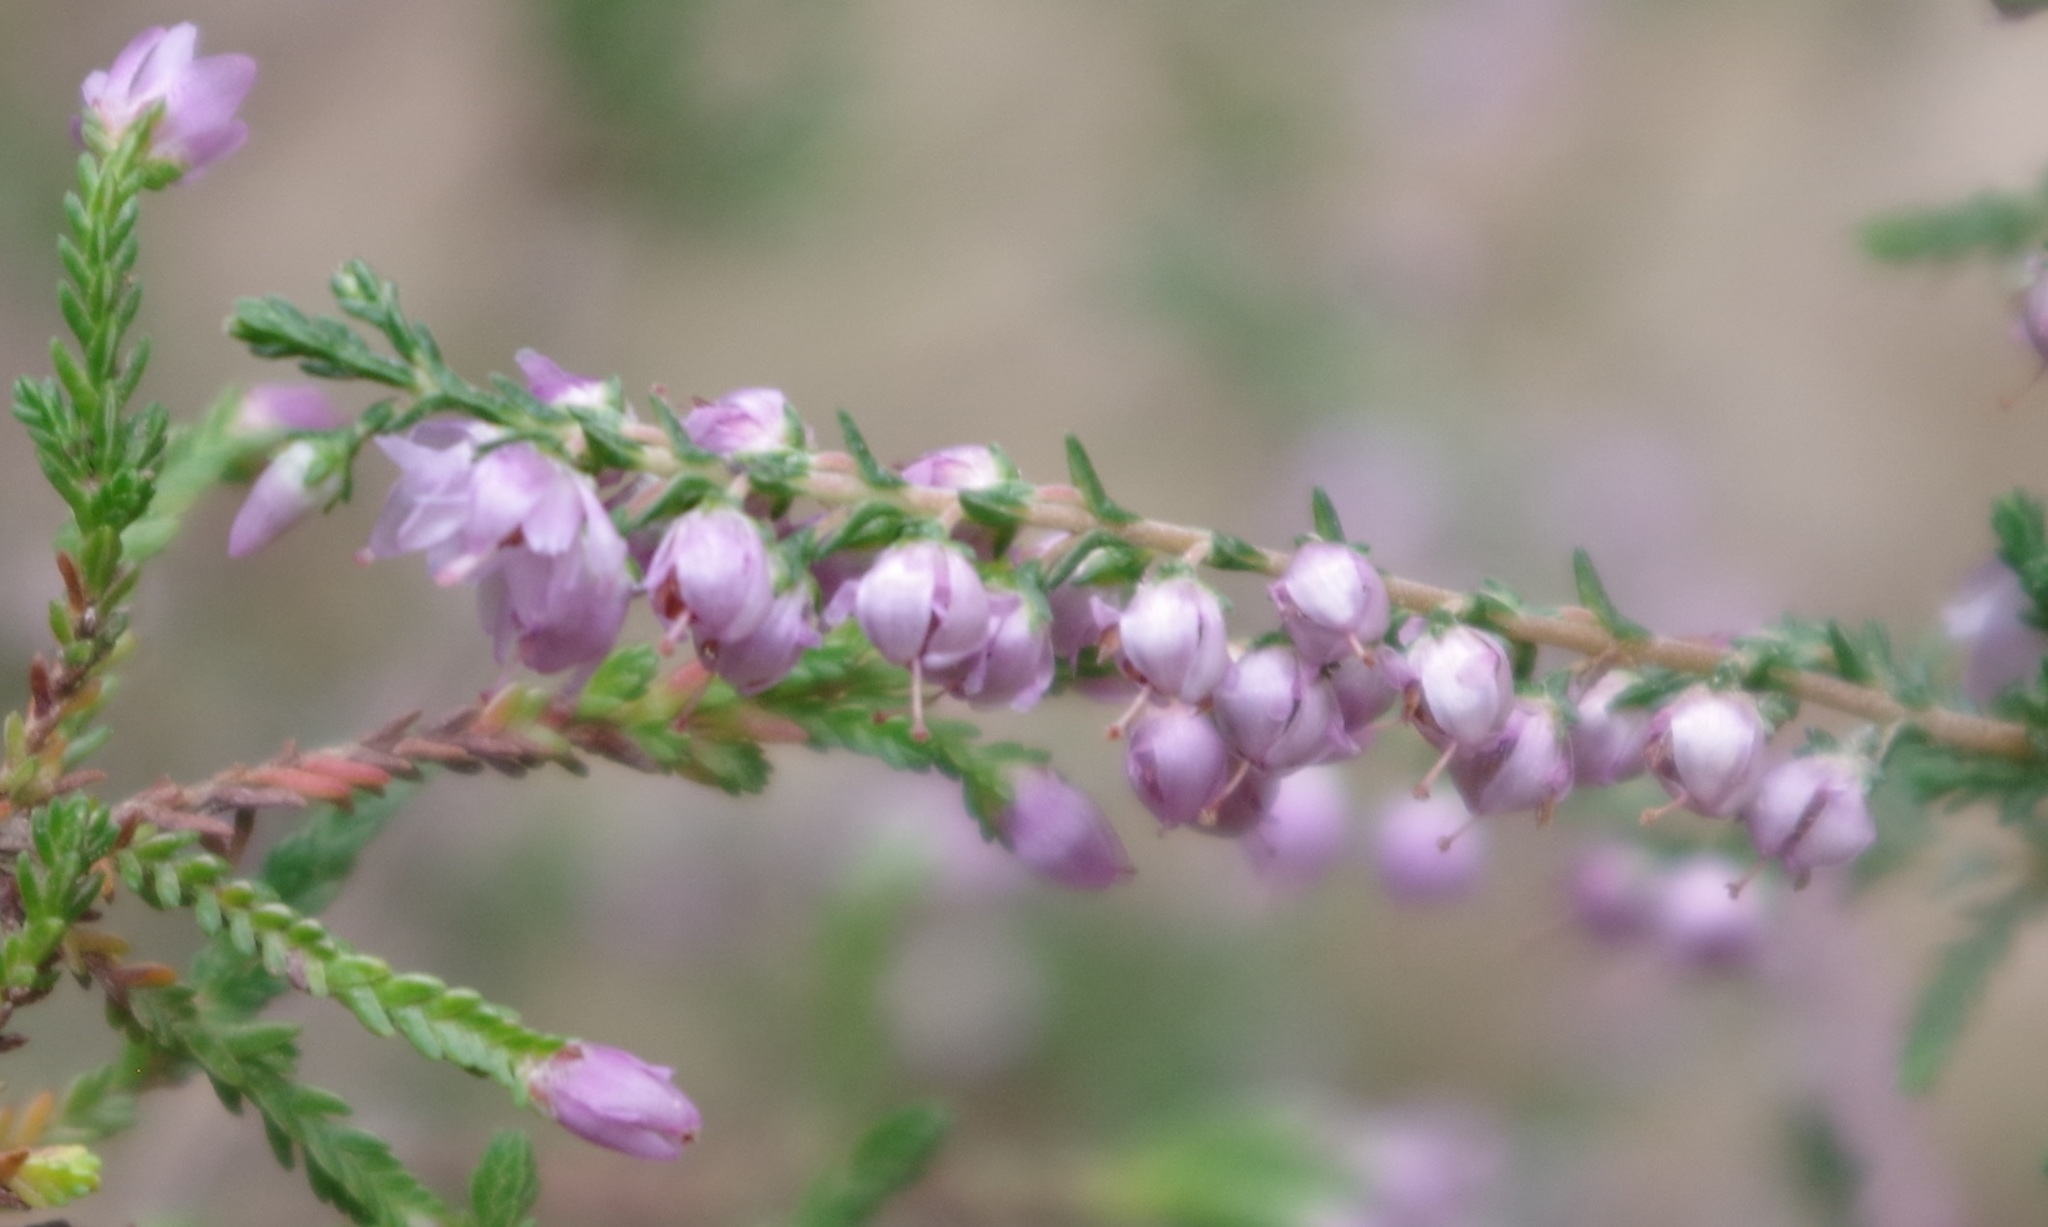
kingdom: Plantae
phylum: Tracheophyta
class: Magnoliopsida
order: Ericales
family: Ericaceae
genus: Calluna
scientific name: Calluna vulgaris
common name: Heather
